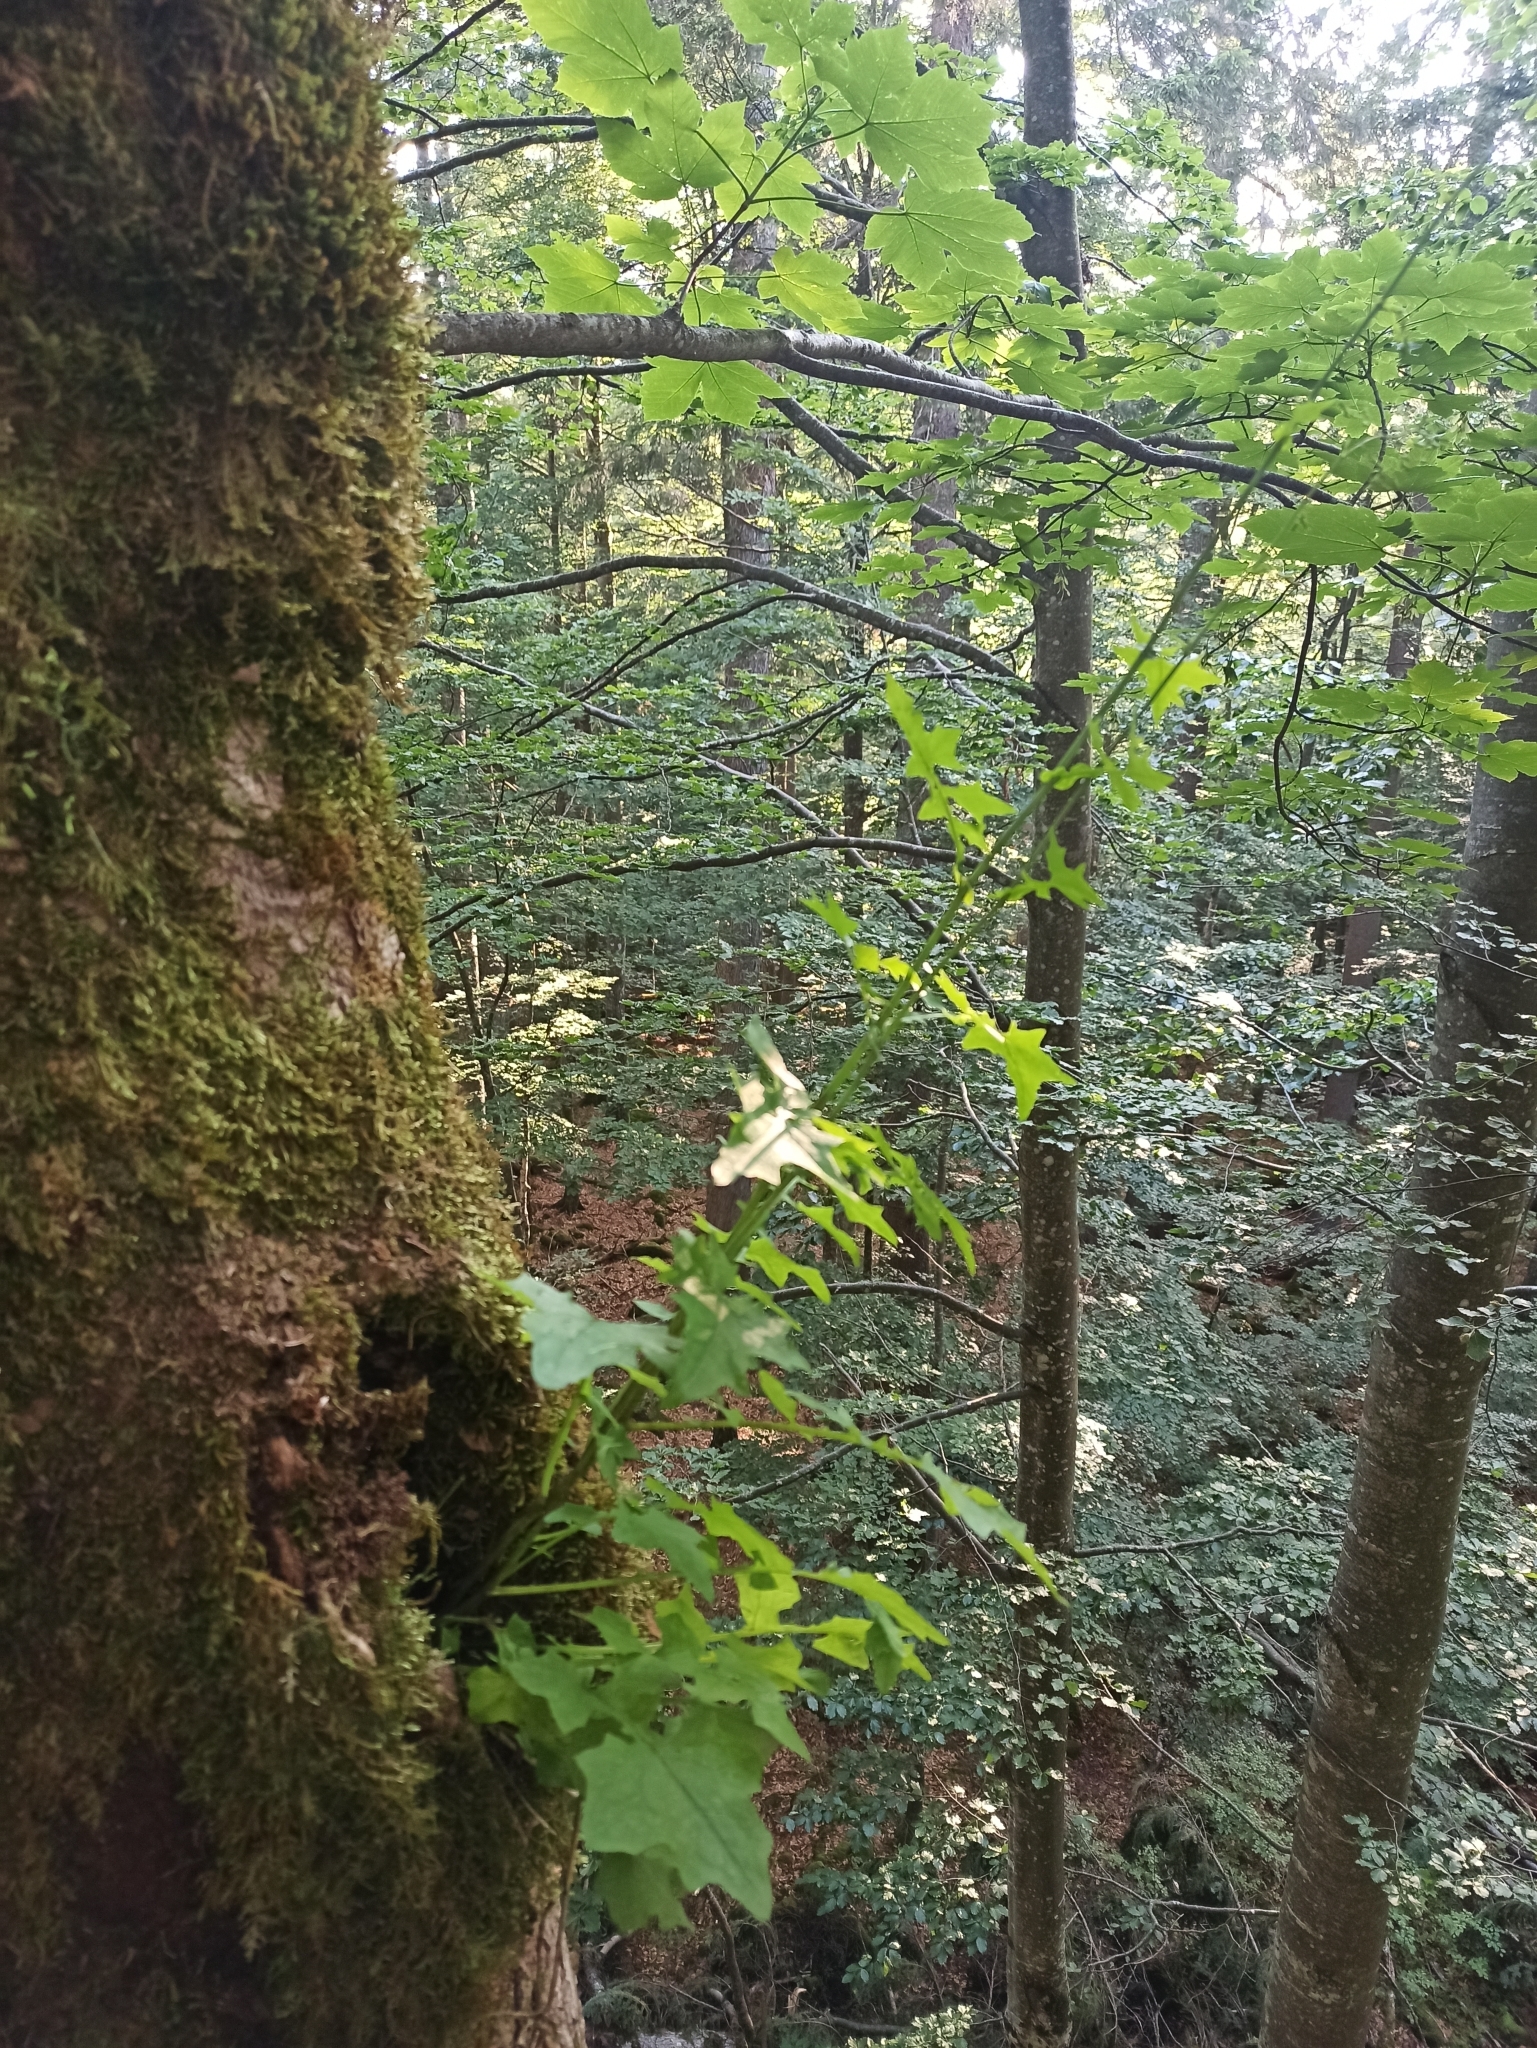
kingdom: Plantae
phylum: Tracheophyta
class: Magnoliopsida
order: Asterales
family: Asteraceae
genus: Mycelis
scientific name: Mycelis muralis
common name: Wall lettuce
